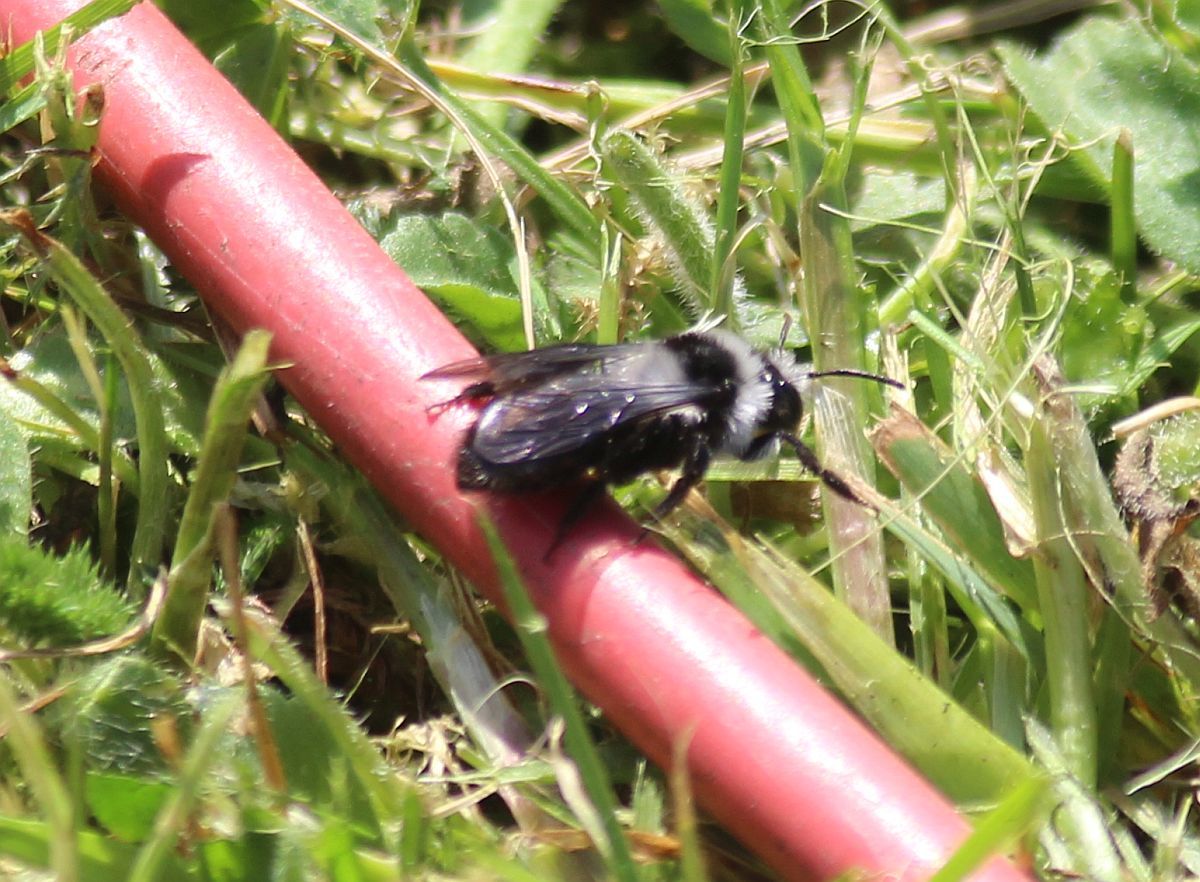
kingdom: Animalia
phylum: Arthropoda
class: Insecta
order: Hymenoptera
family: Andrenidae
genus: Andrena
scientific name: Andrena cineraria
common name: Ashy mining bee
